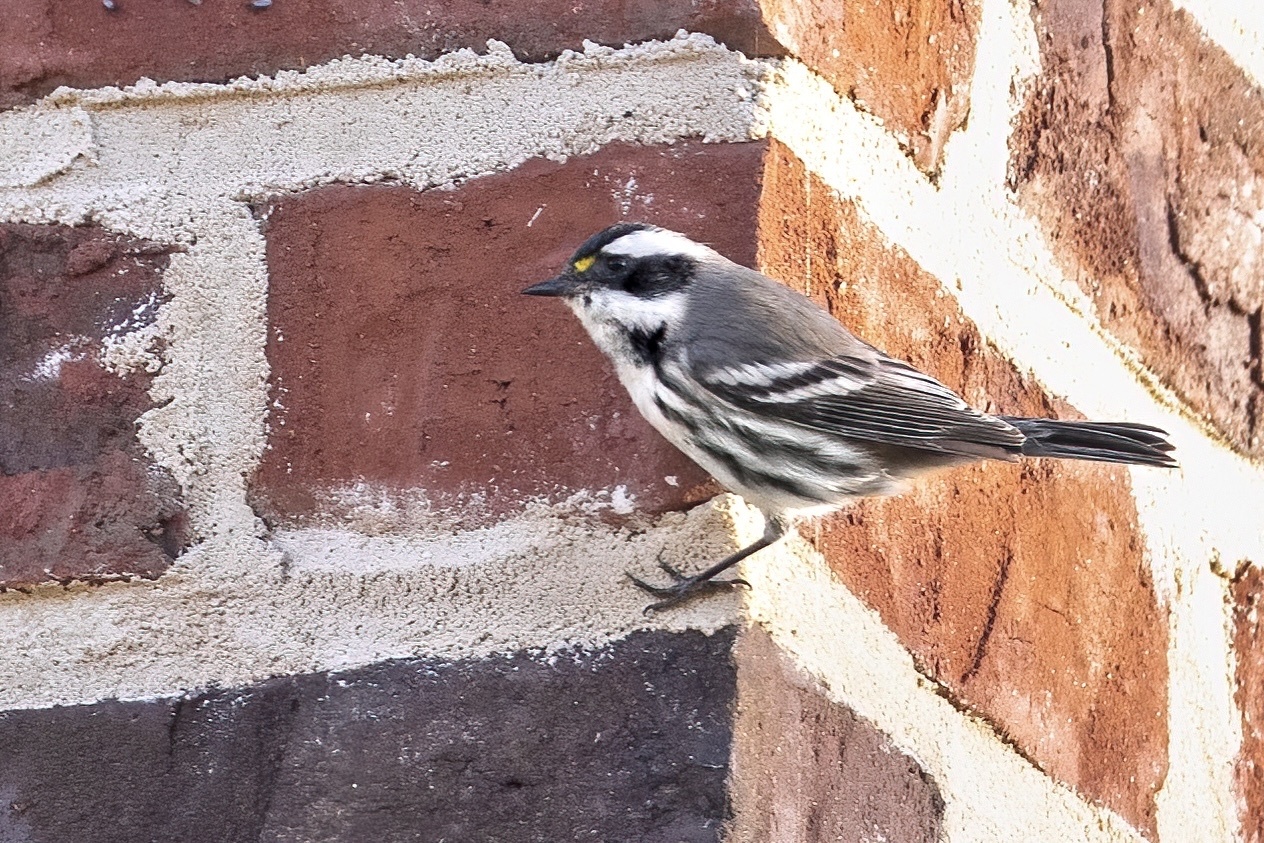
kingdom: Animalia
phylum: Chordata
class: Aves
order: Passeriformes
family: Parulidae
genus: Setophaga
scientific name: Setophaga nigrescens
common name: Black-throated gray warbler
